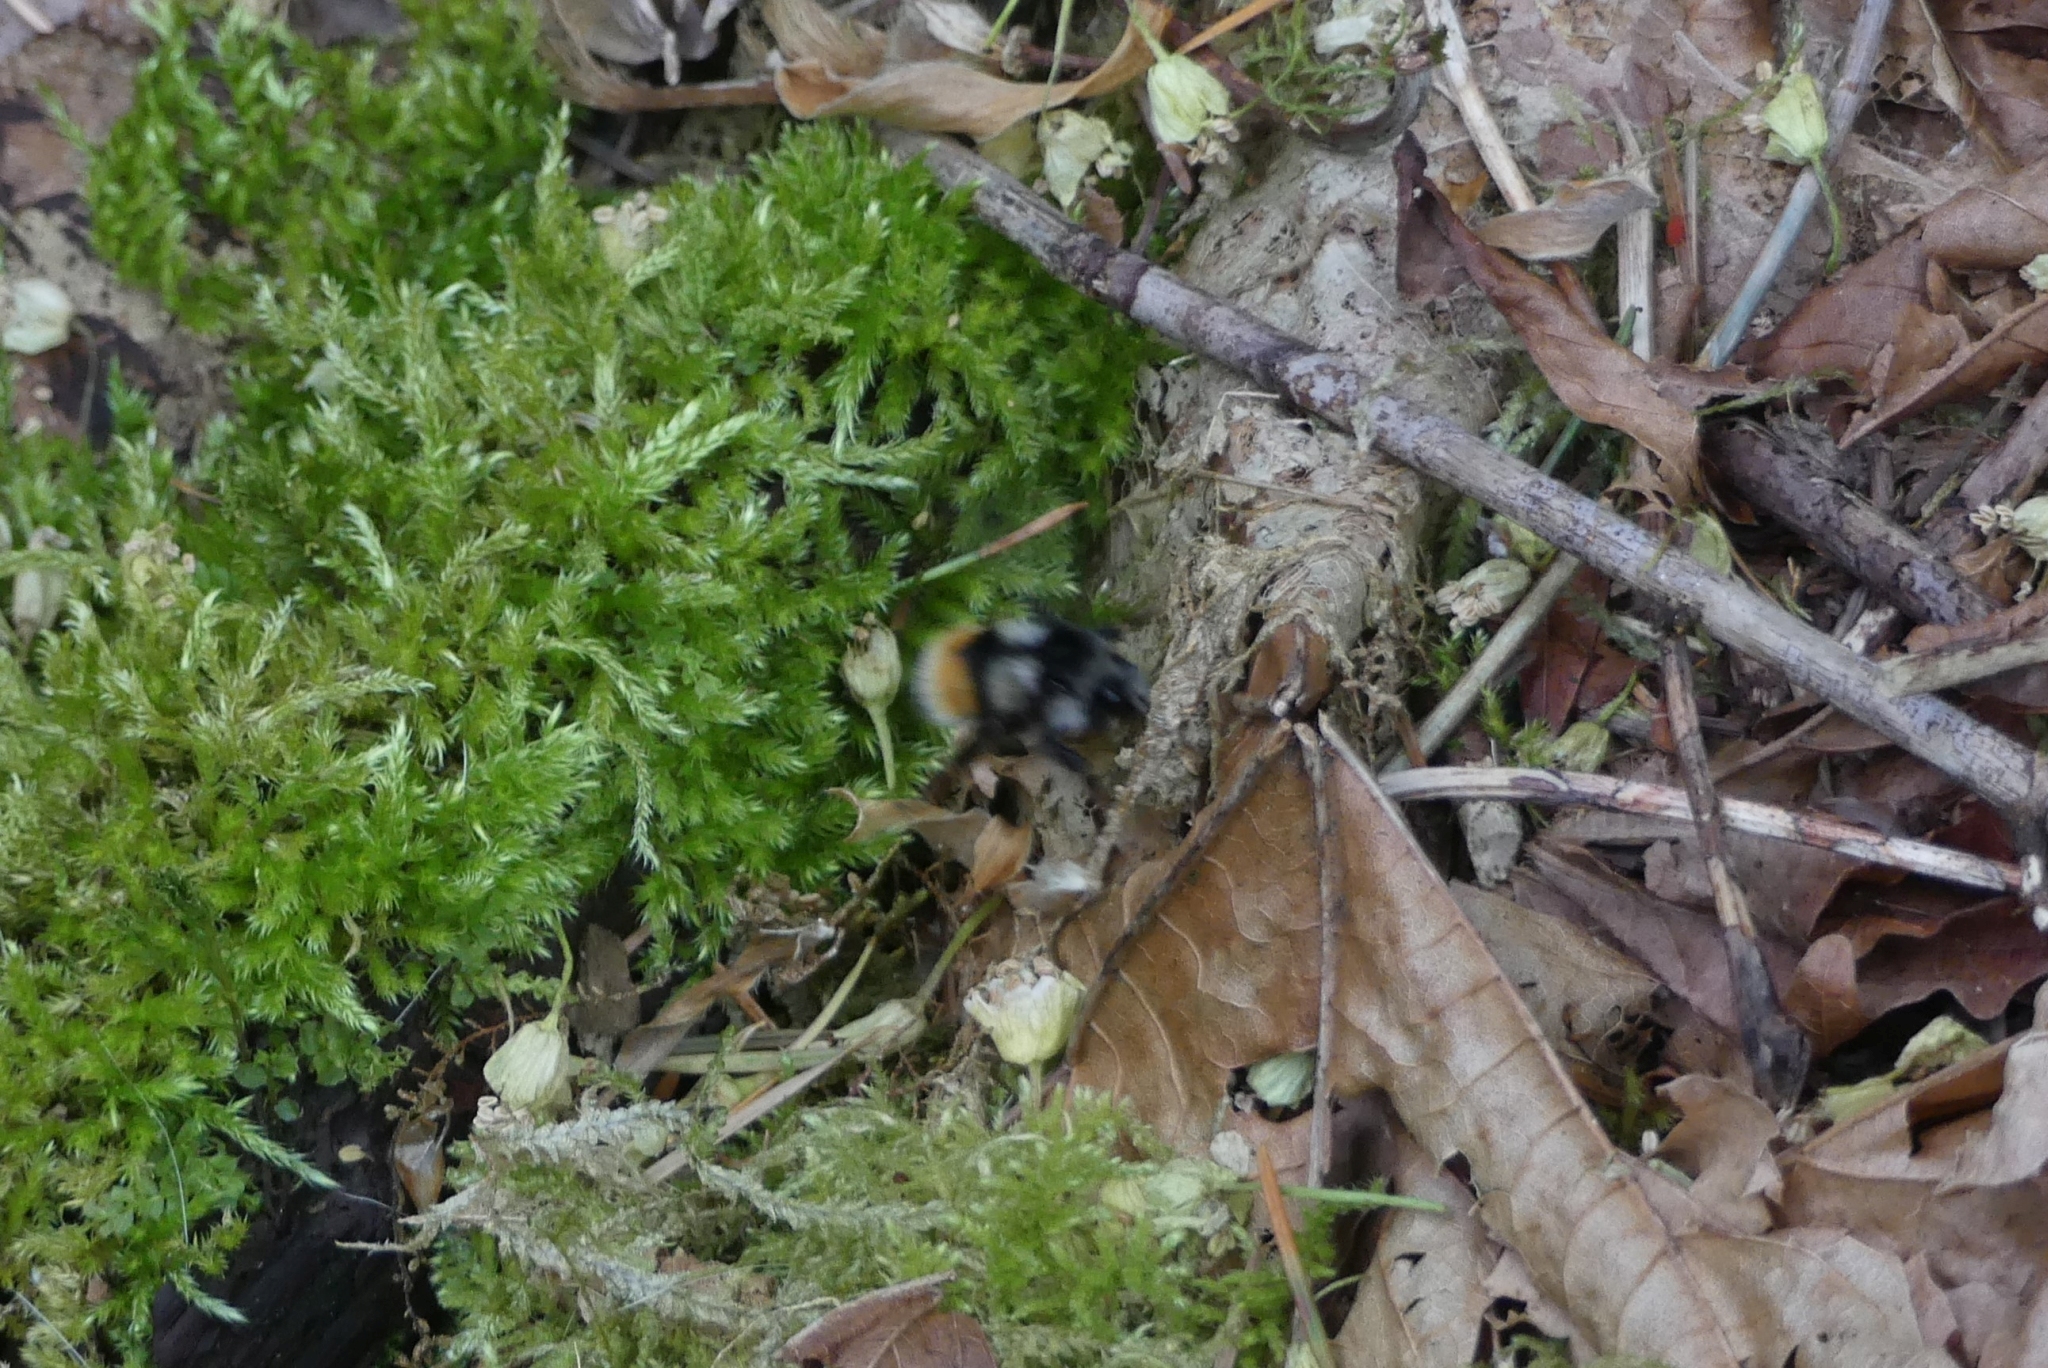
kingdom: Animalia
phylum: Arthropoda
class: Insecta
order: Hymenoptera
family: Apidae
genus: Bombus
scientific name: Bombus vancouverensis
